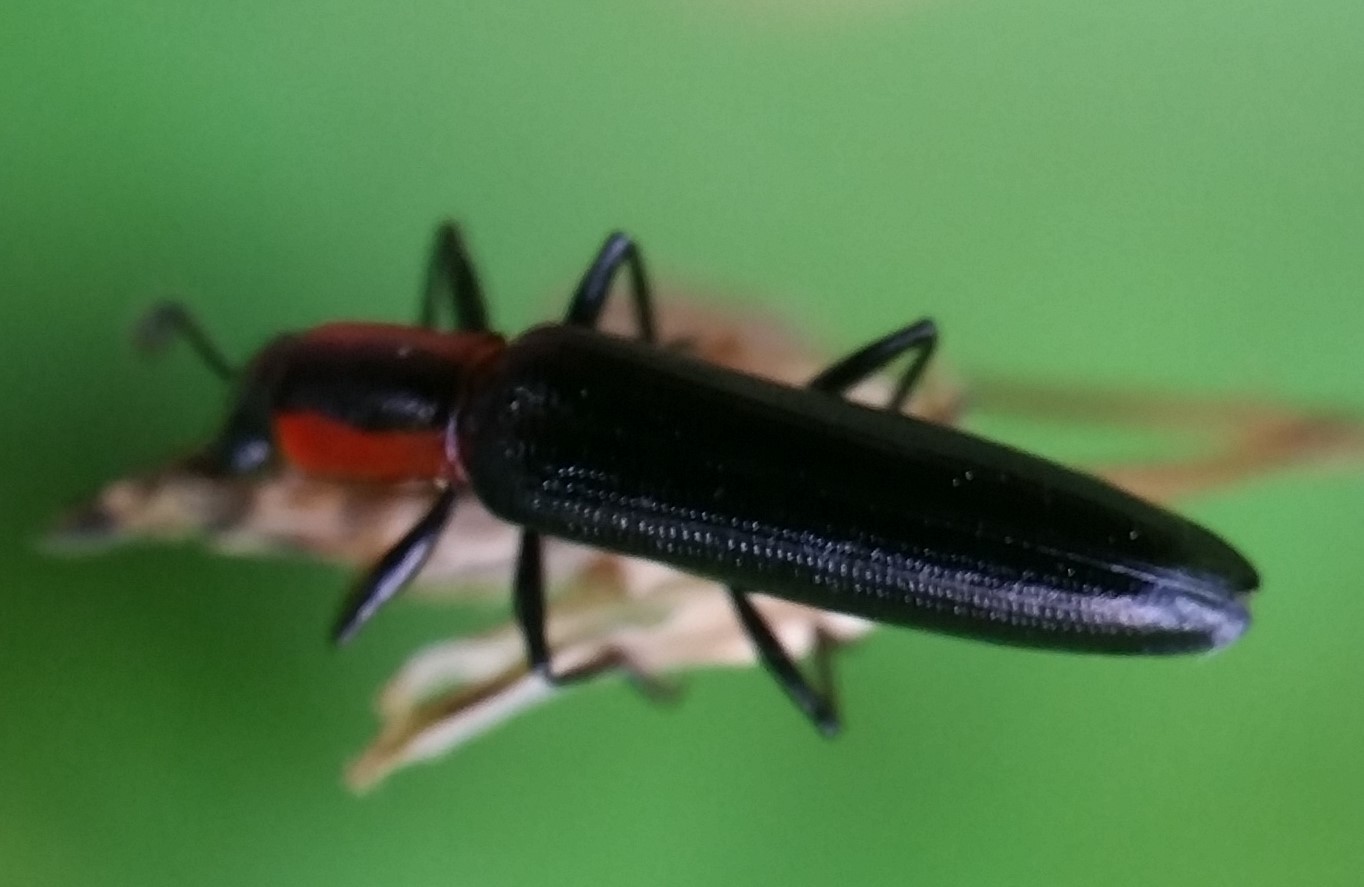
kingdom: Animalia
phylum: Arthropoda
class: Insecta
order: Coleoptera
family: Erotylidae
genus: Acropteroxys
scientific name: Acropteroxys gracilis
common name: Slender lizard beetle
